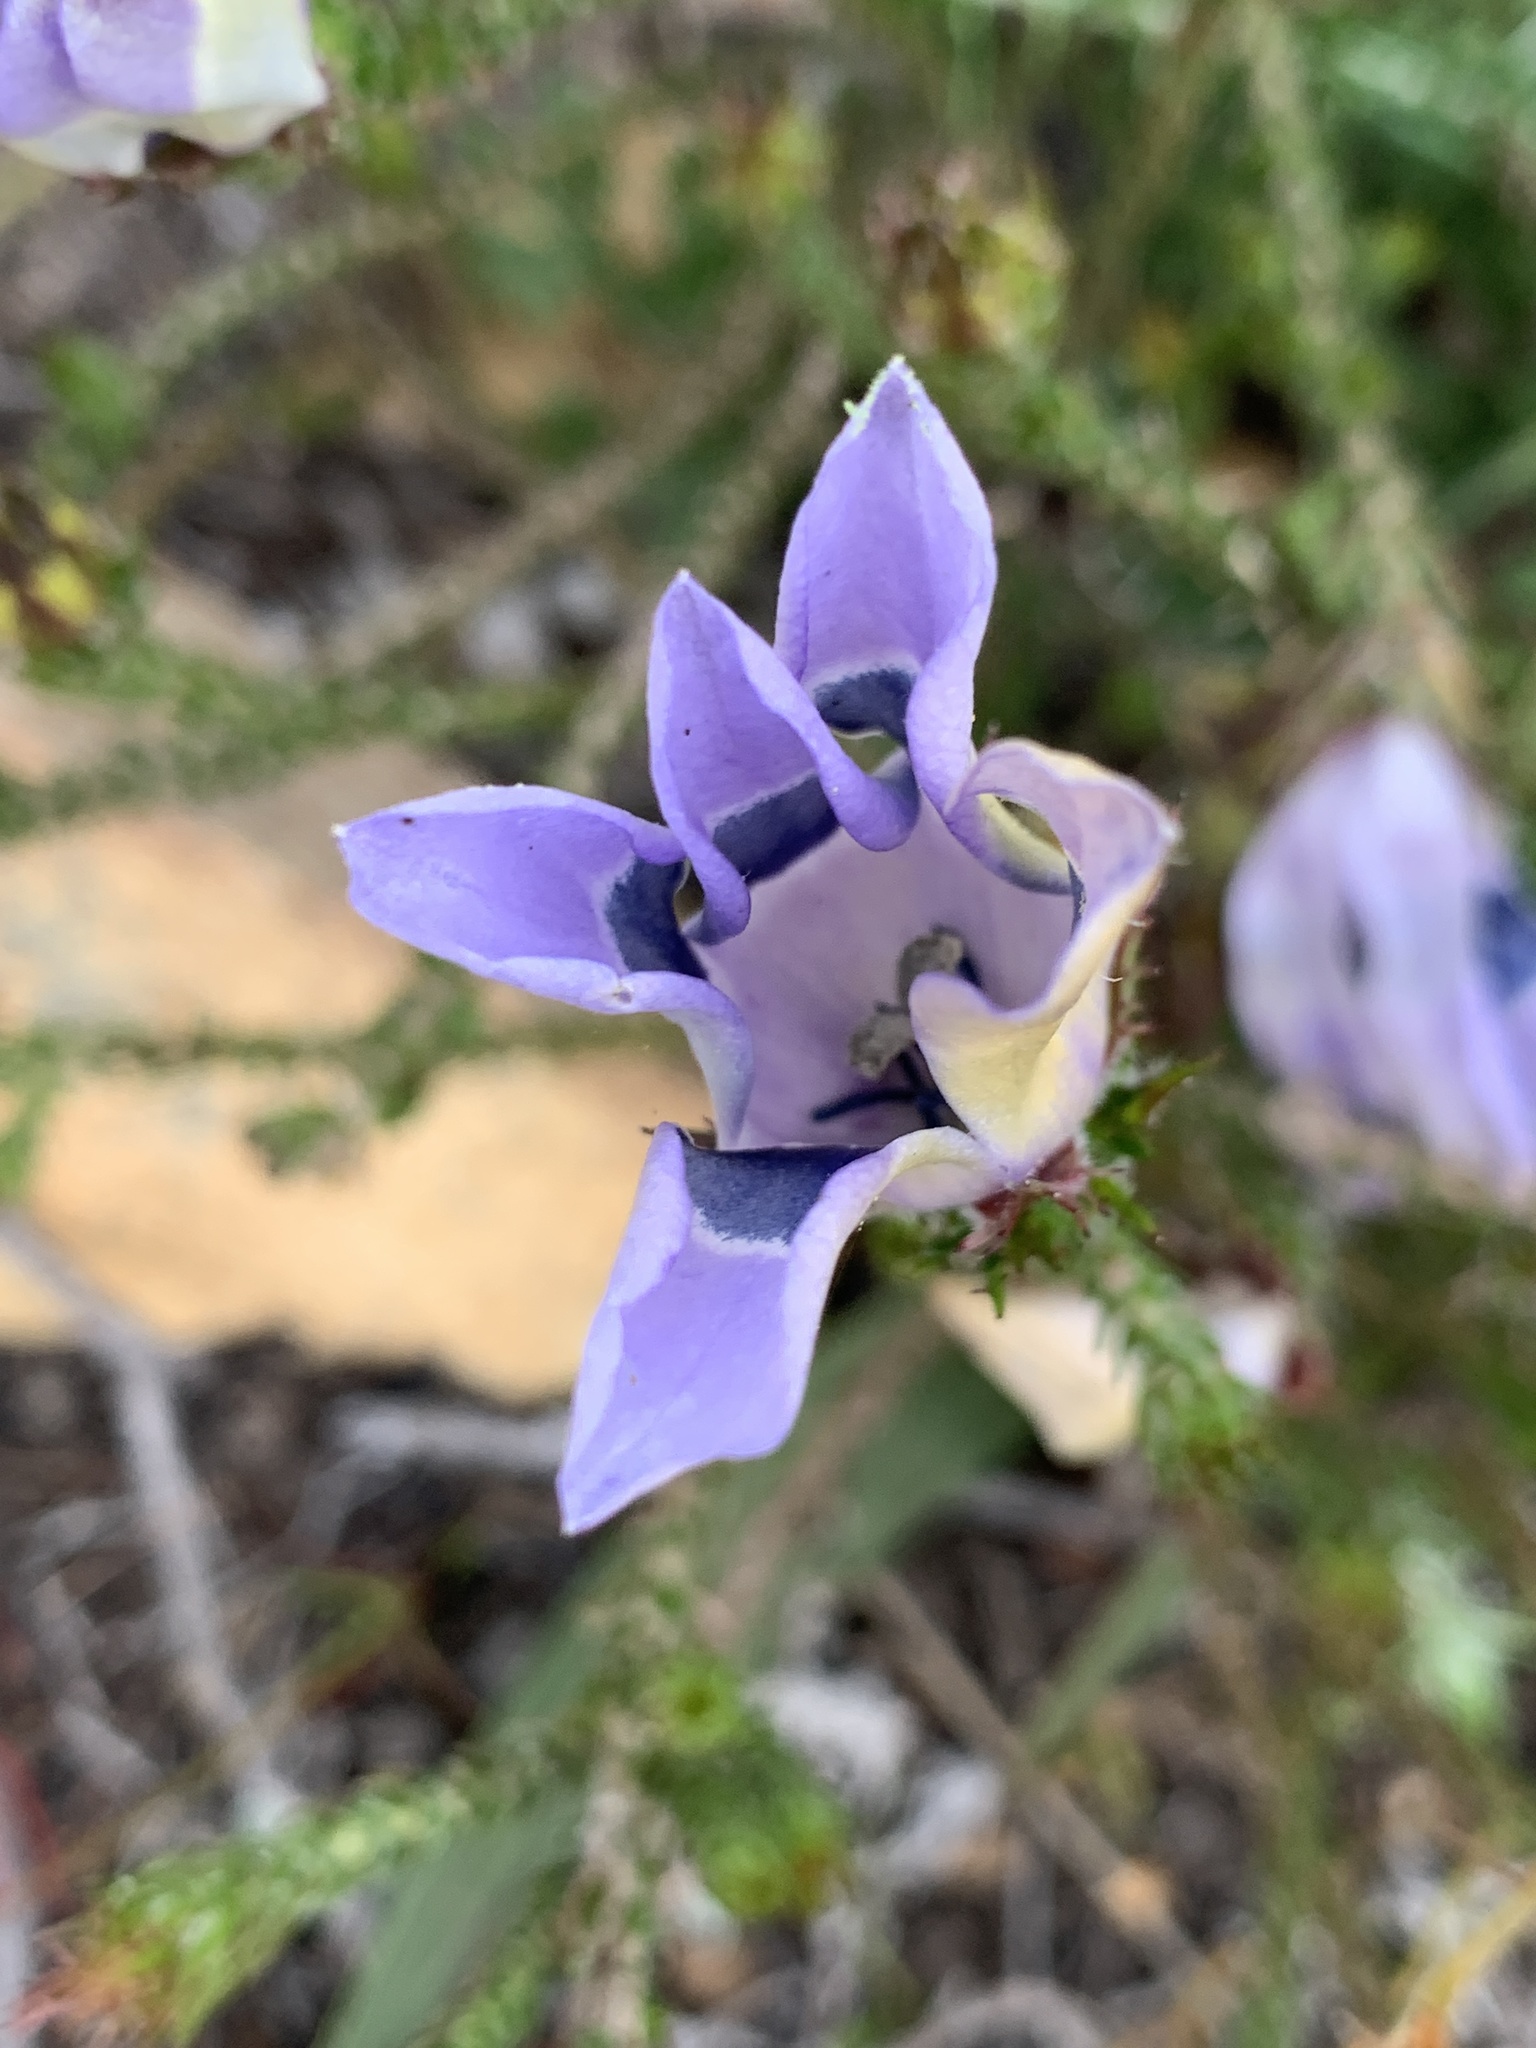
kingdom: Plantae
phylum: Tracheophyta
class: Magnoliopsida
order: Asterales
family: Campanulaceae
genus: Roella
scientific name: Roella ciliata
